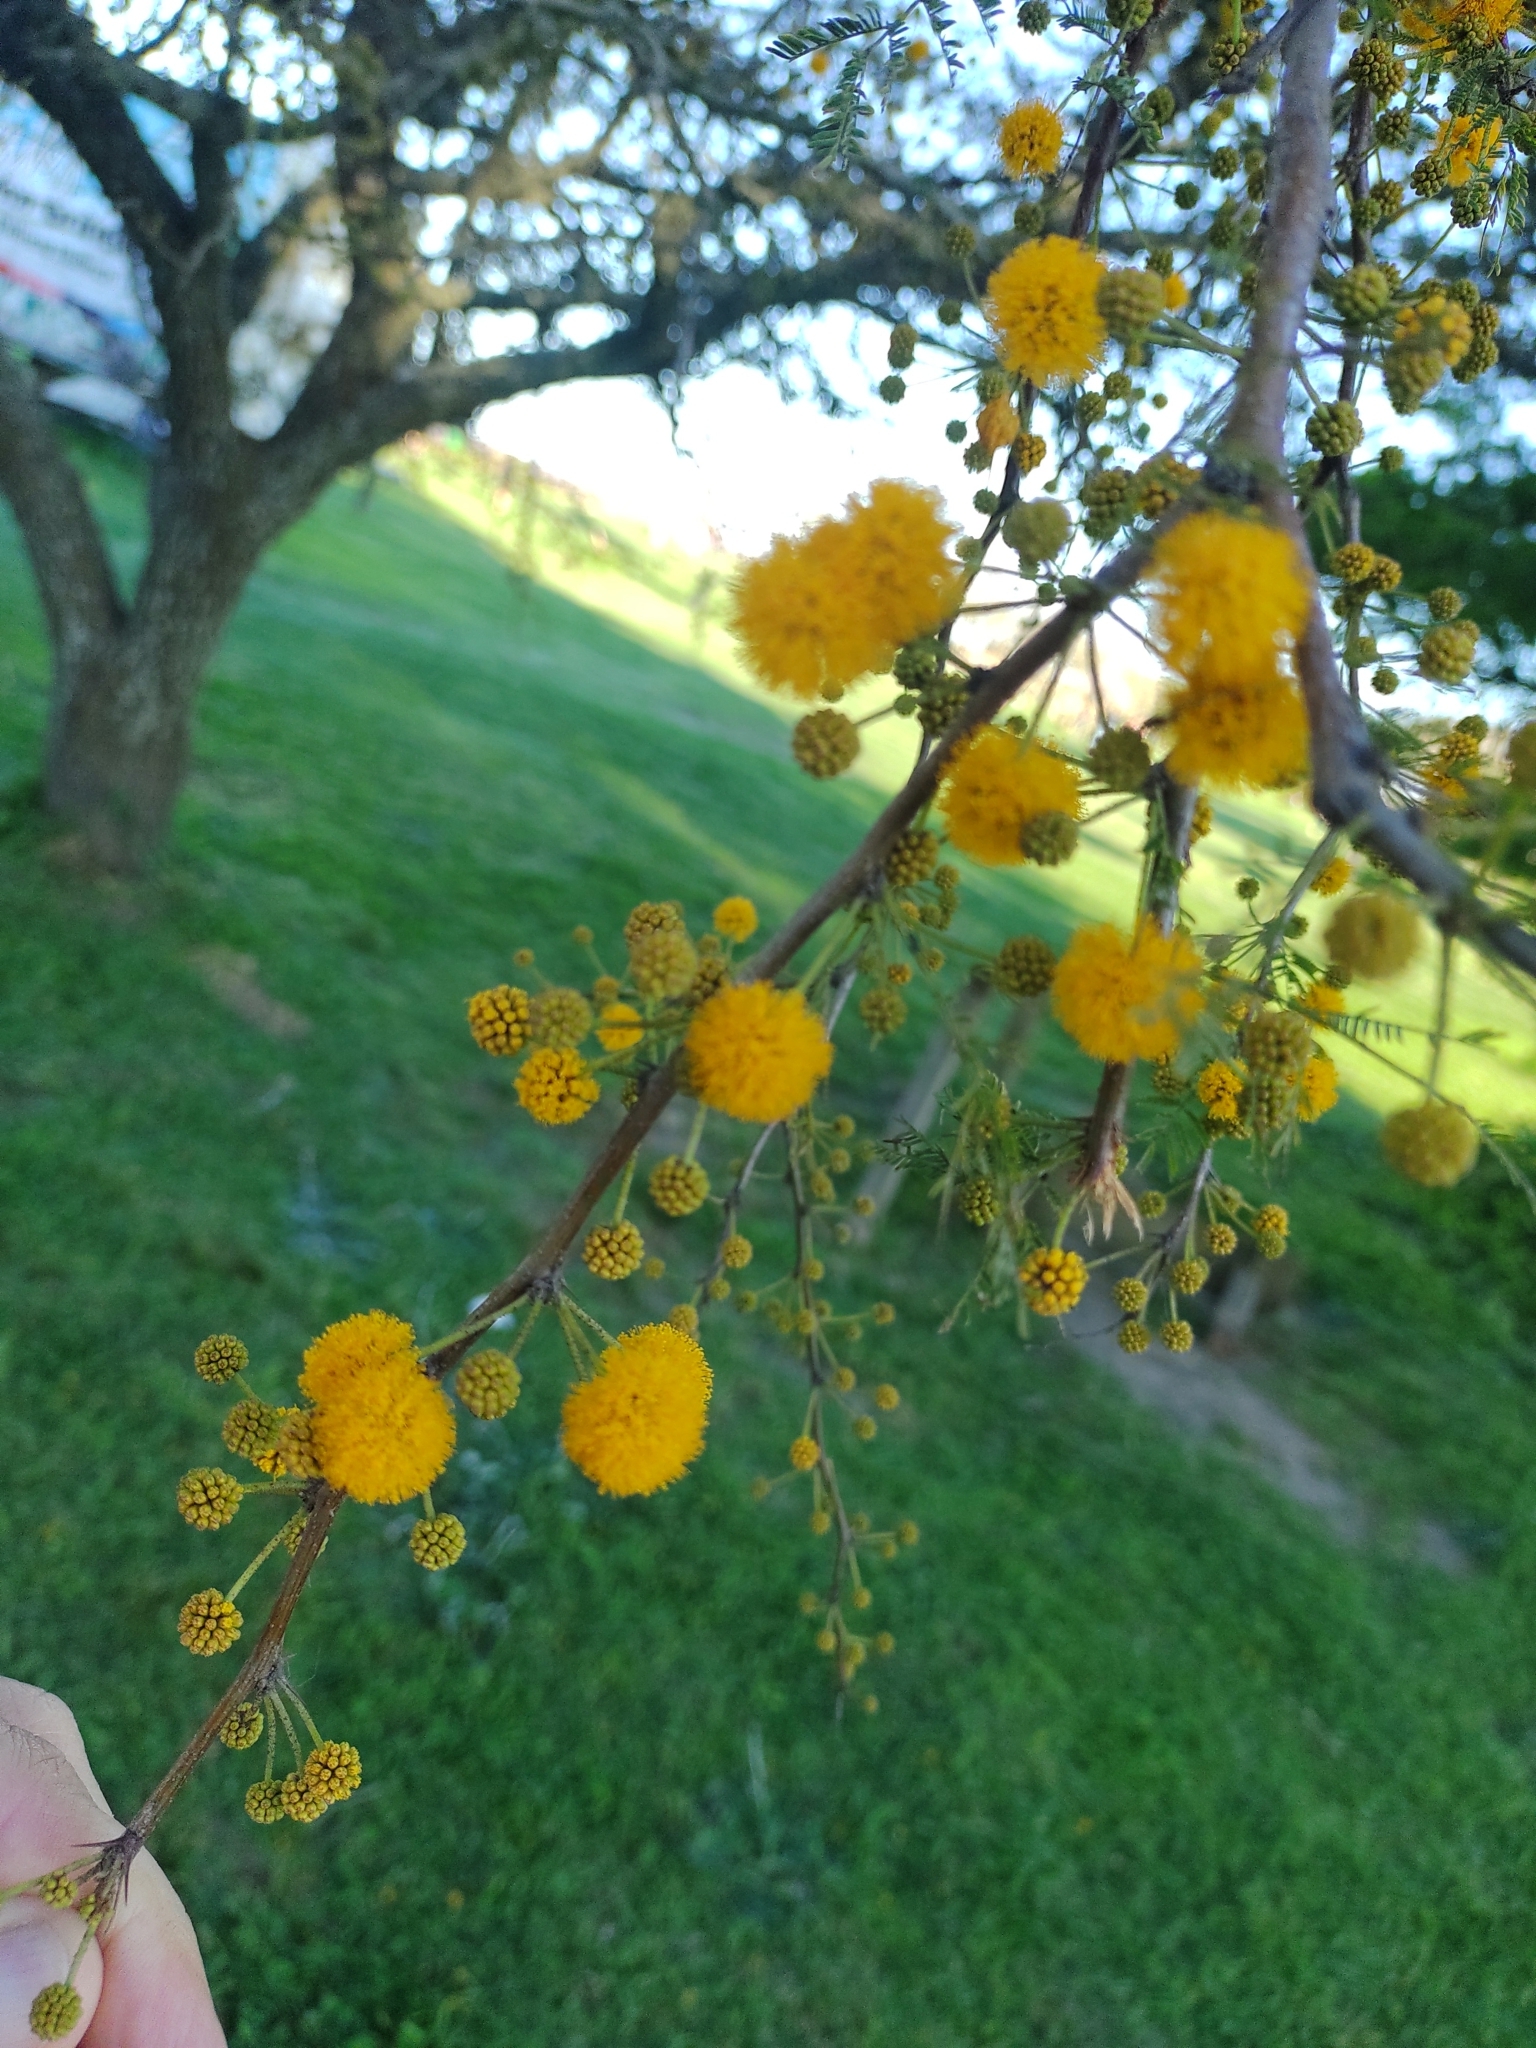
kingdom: Plantae
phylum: Tracheophyta
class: Magnoliopsida
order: Fabales
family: Fabaceae
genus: Vachellia
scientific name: Vachellia caven
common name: Roman cassie
